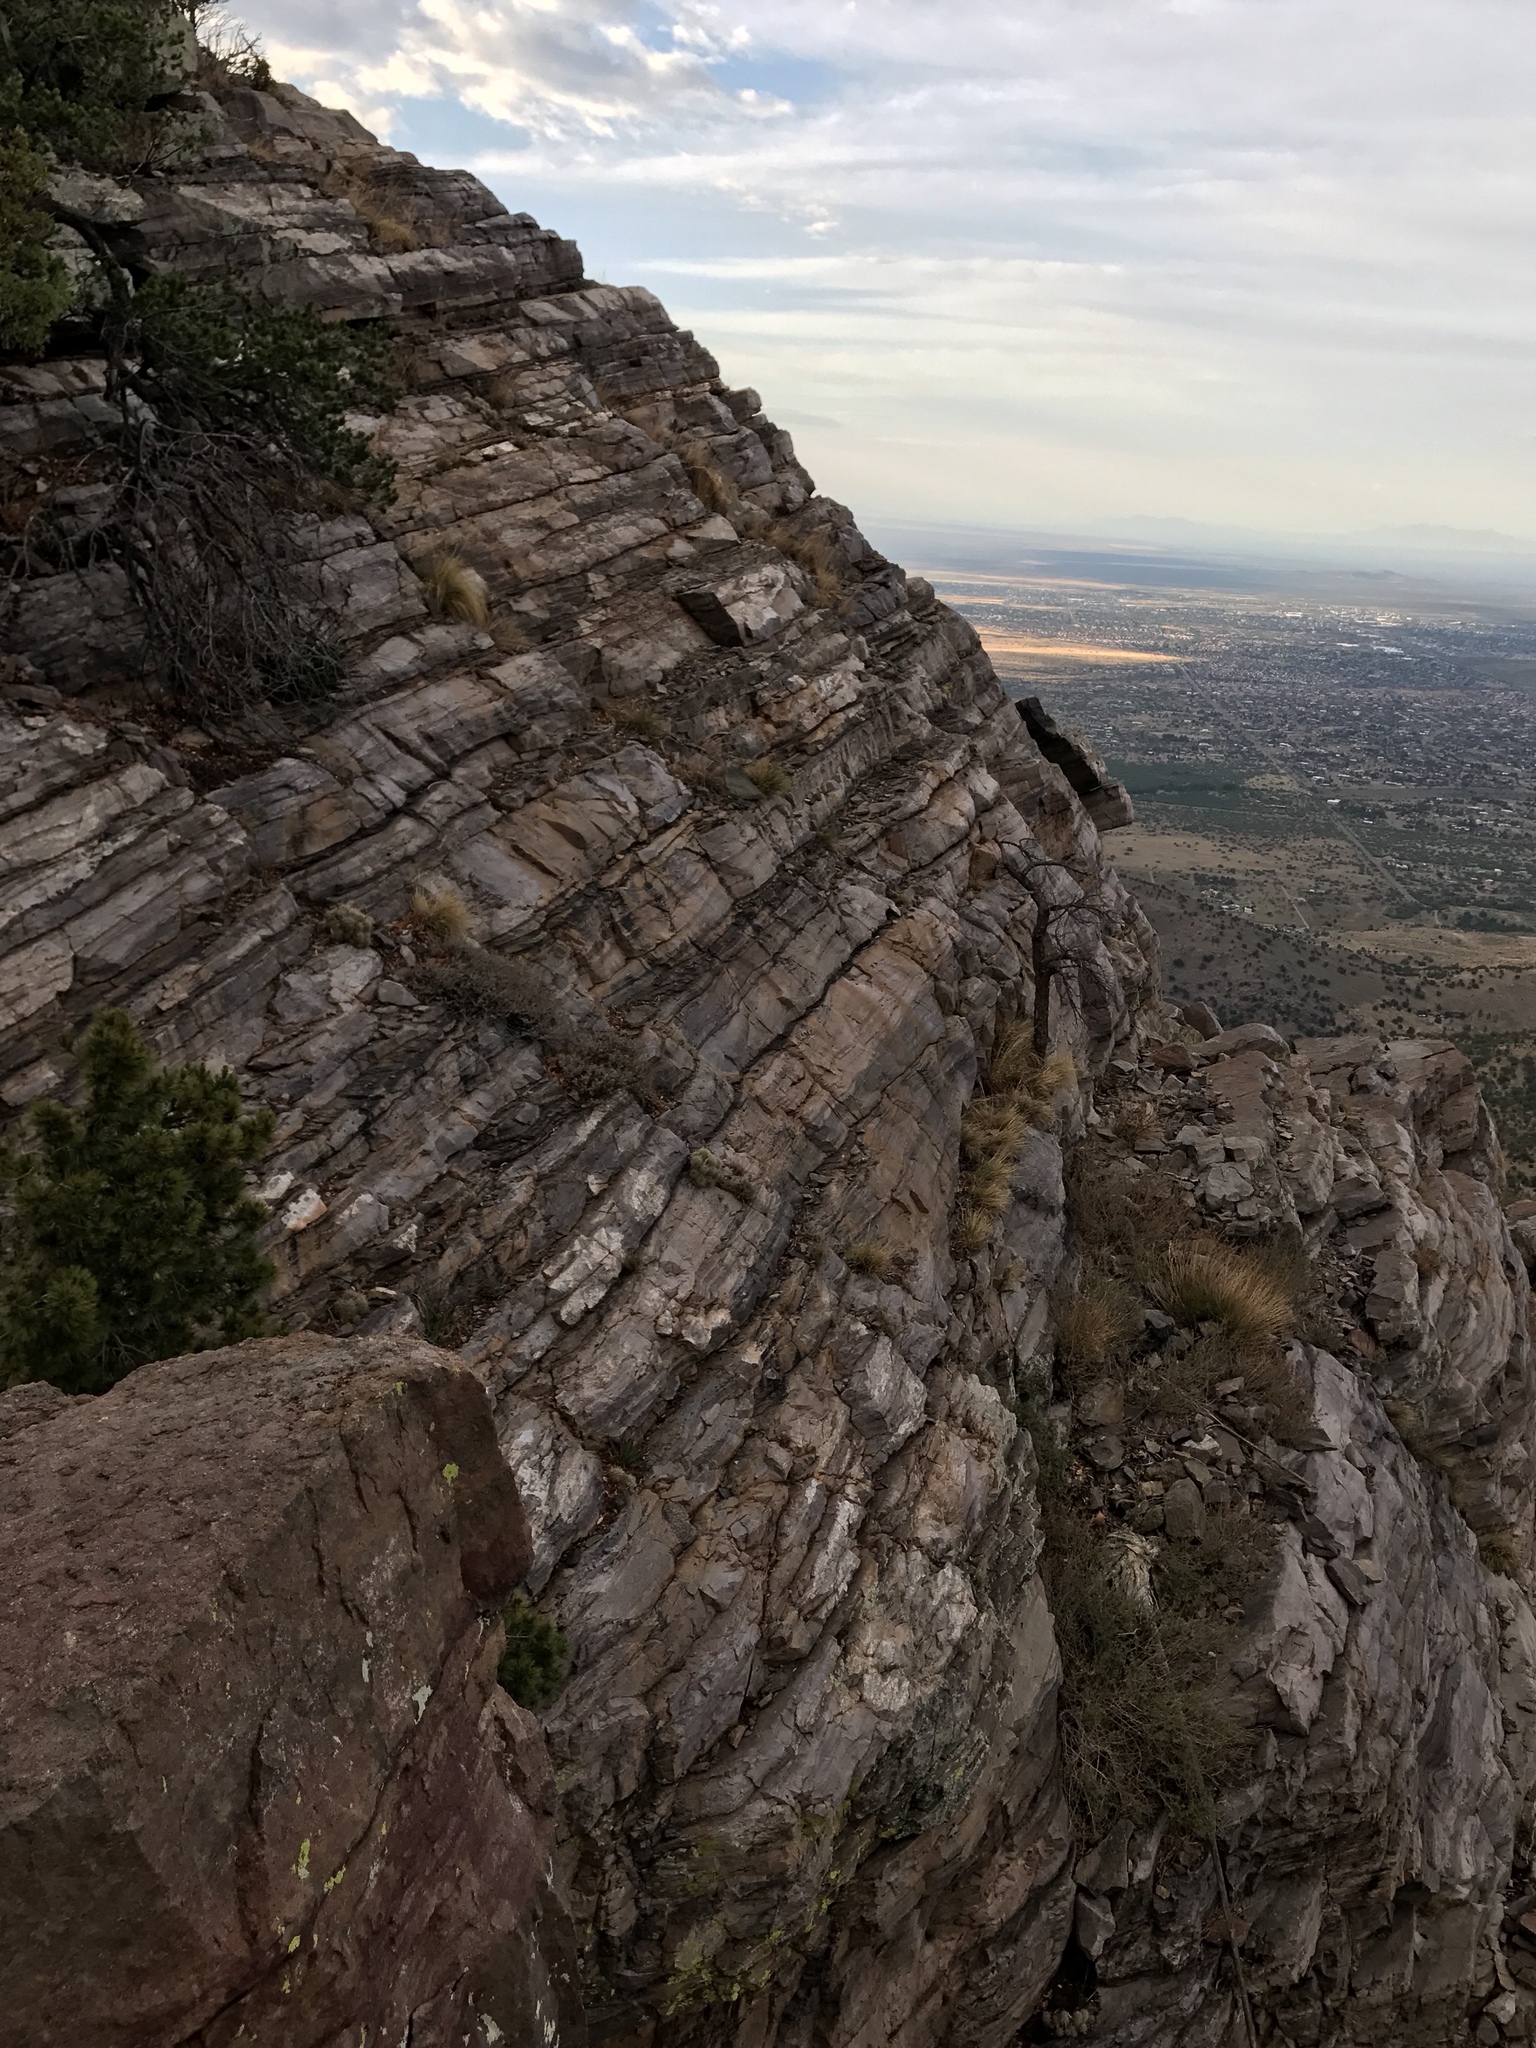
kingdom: Plantae
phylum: Tracheophyta
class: Magnoliopsida
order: Caryophyllales
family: Cactaceae
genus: Opuntia
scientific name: Opuntia engelmannii
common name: Cactus-apple
